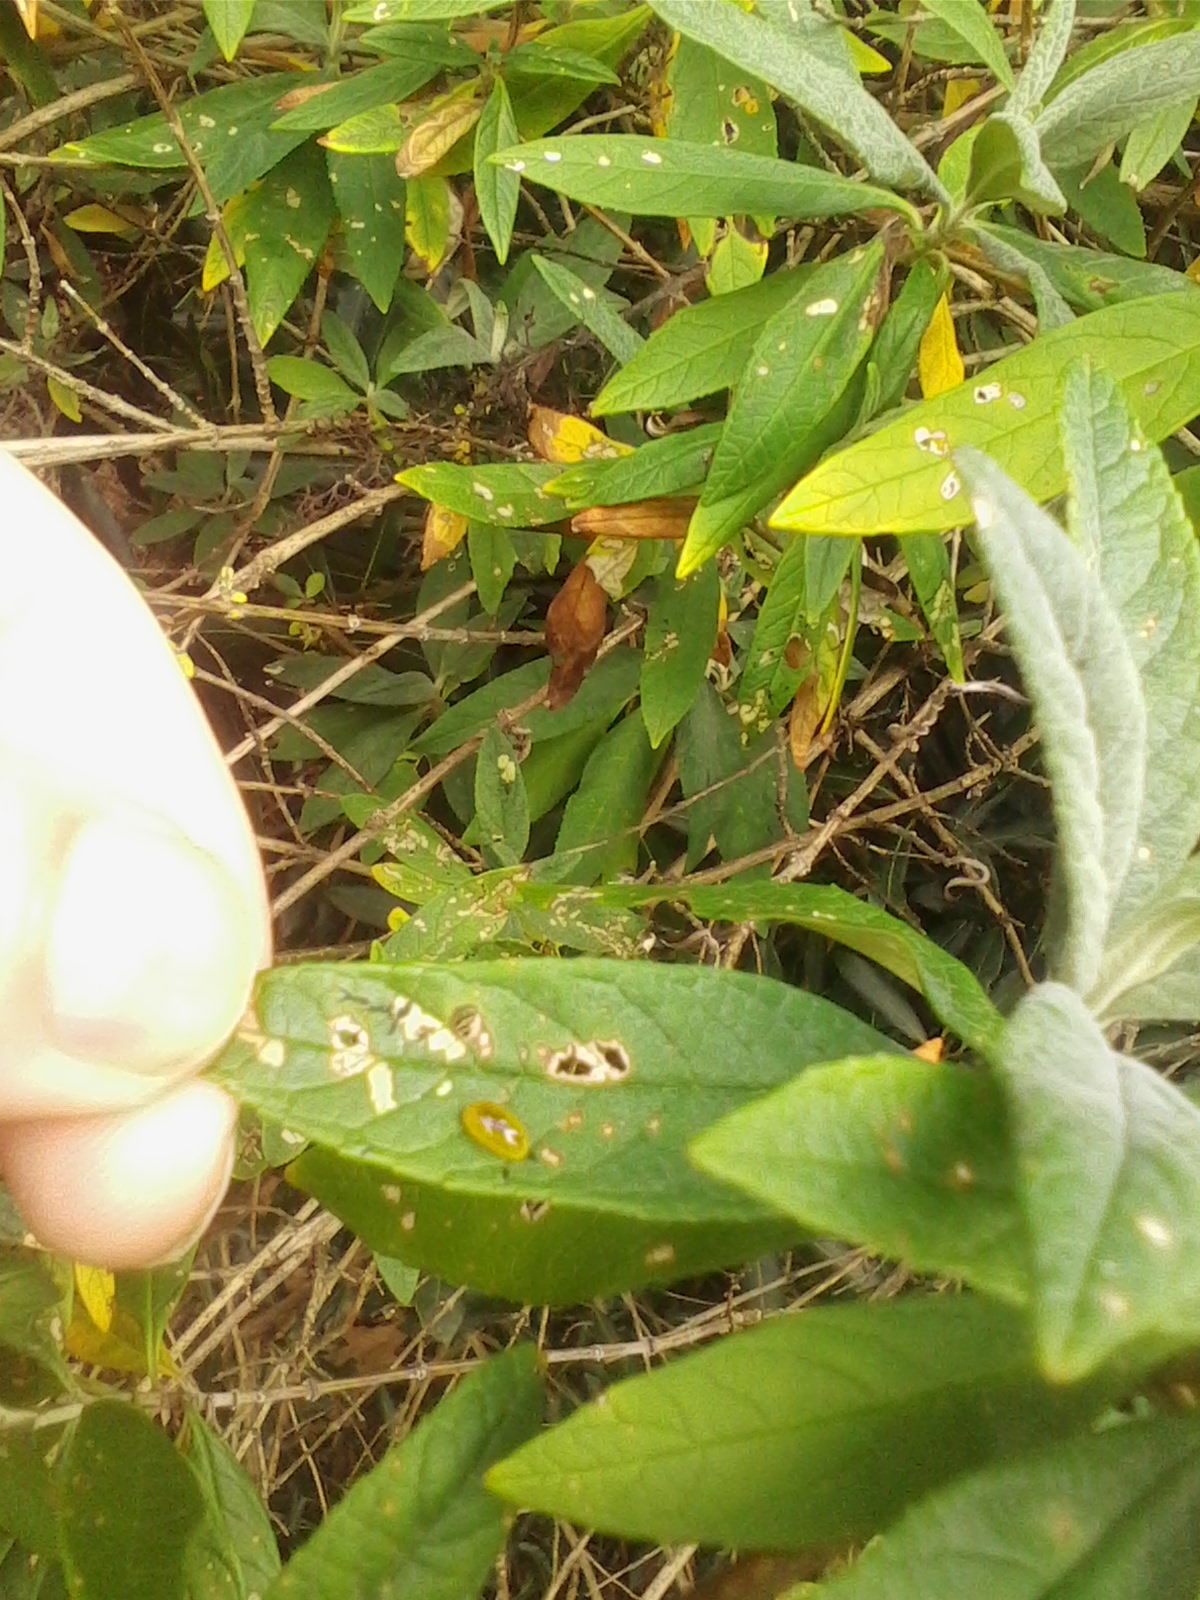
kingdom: Animalia
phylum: Arthropoda
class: Insecta
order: Coleoptera
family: Curculionidae
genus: Cleopus
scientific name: Cleopus japonicus
